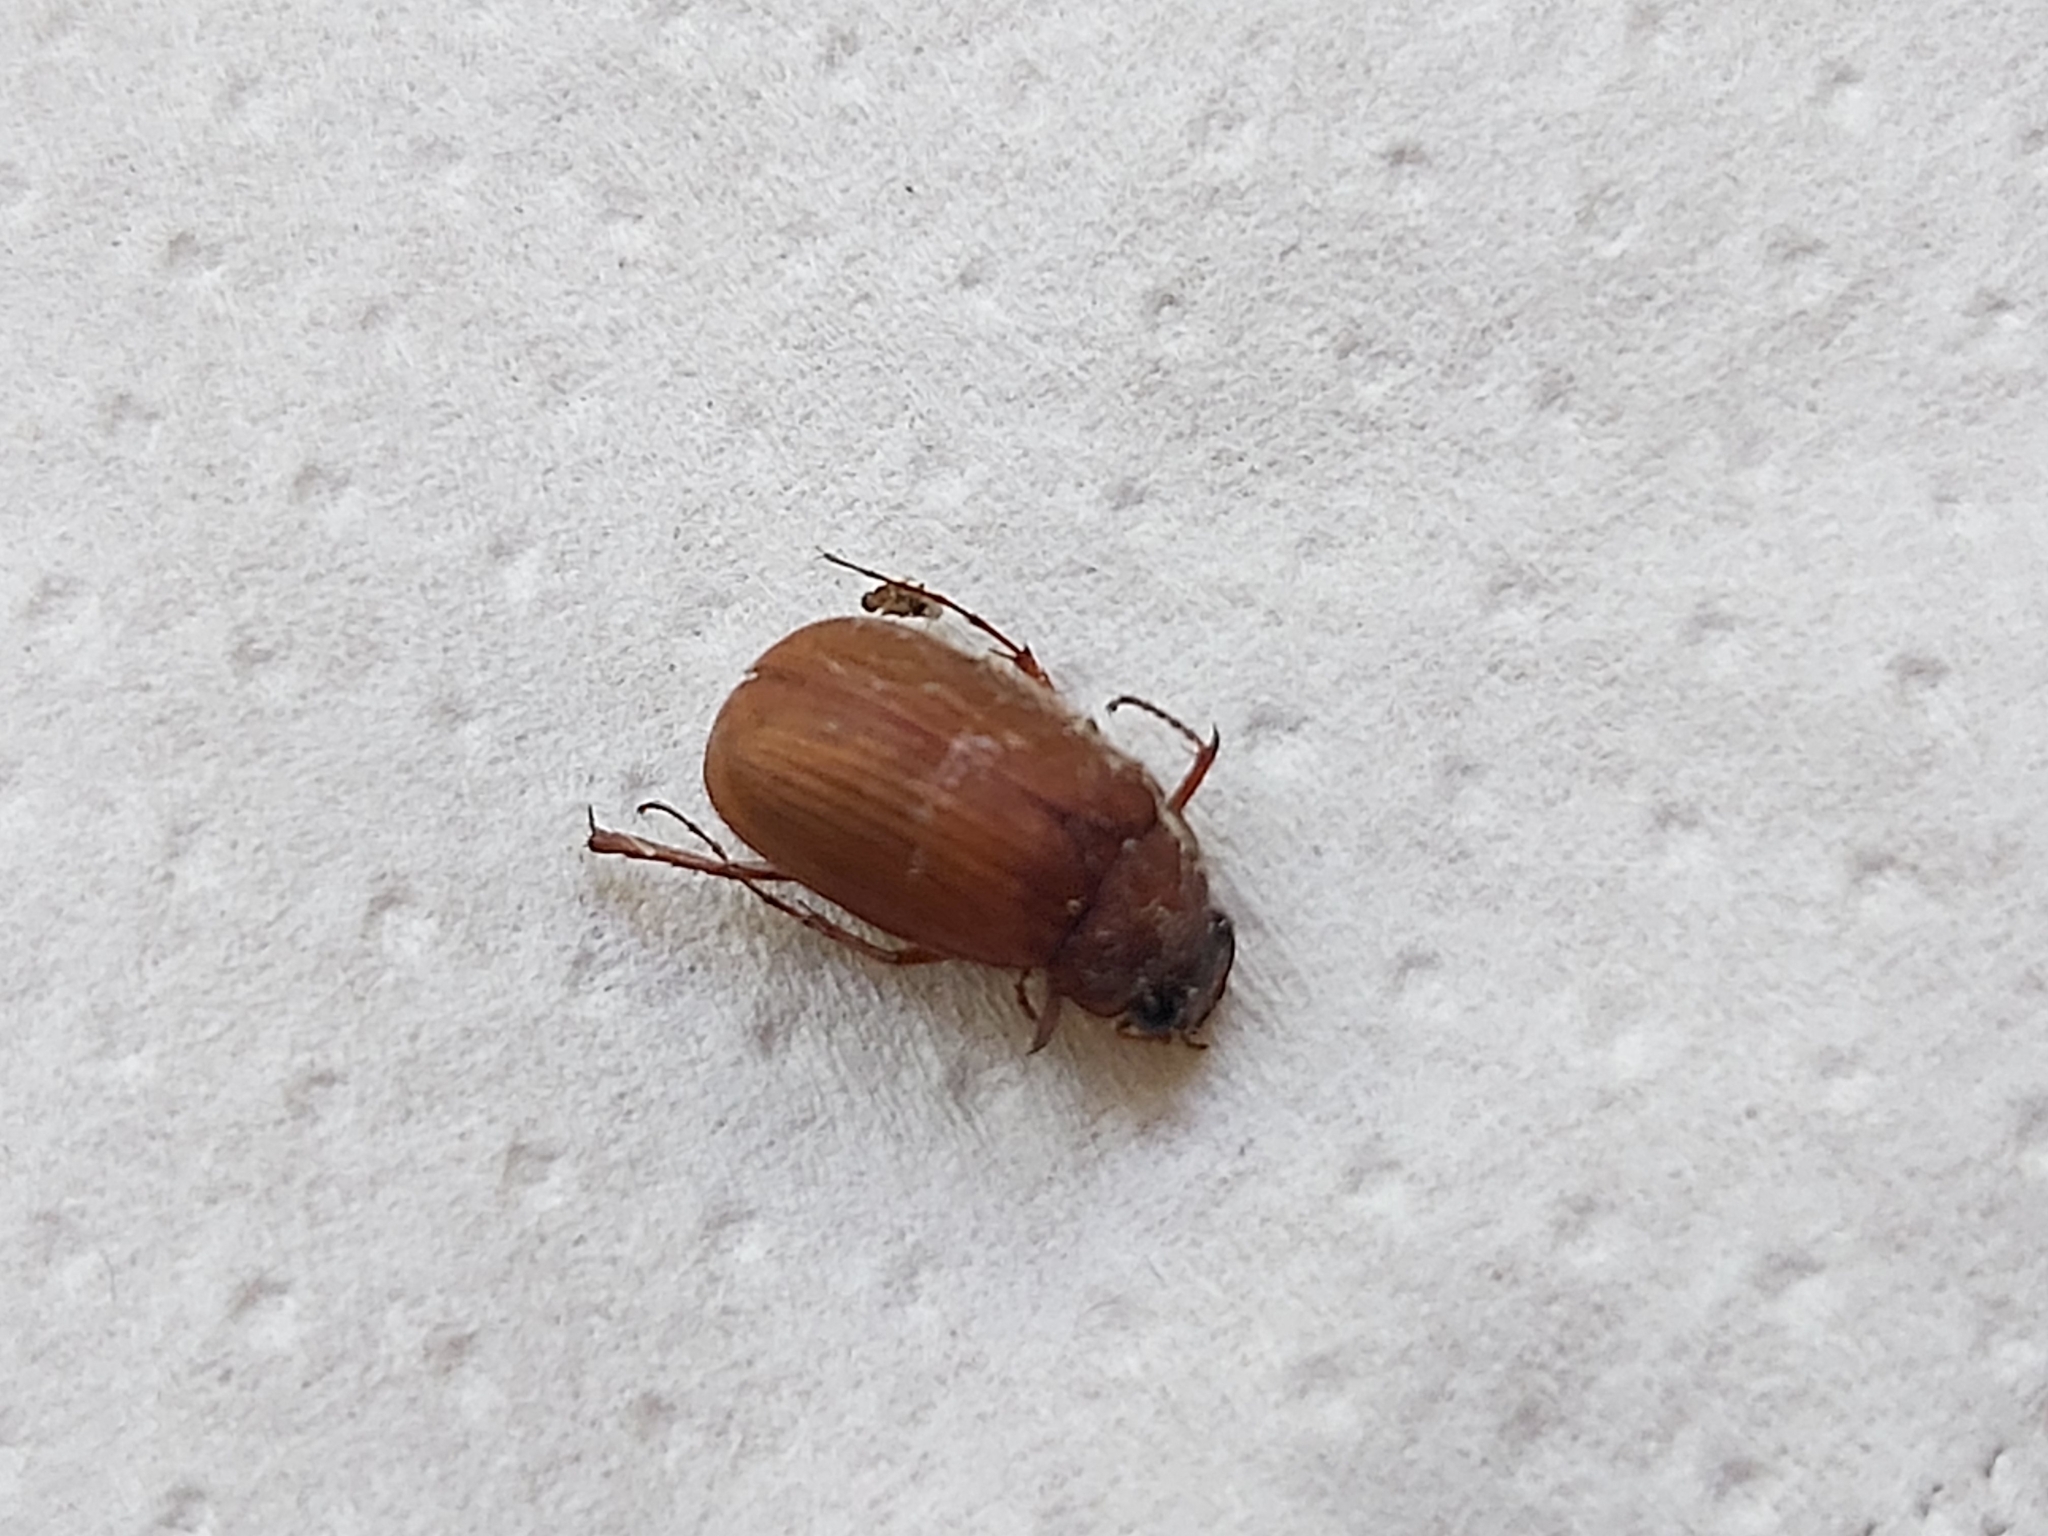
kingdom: Animalia
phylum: Arthropoda
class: Insecta
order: Coleoptera
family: Scarabaeidae
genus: Serica
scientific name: Serica brunnea
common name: Brown chafer
